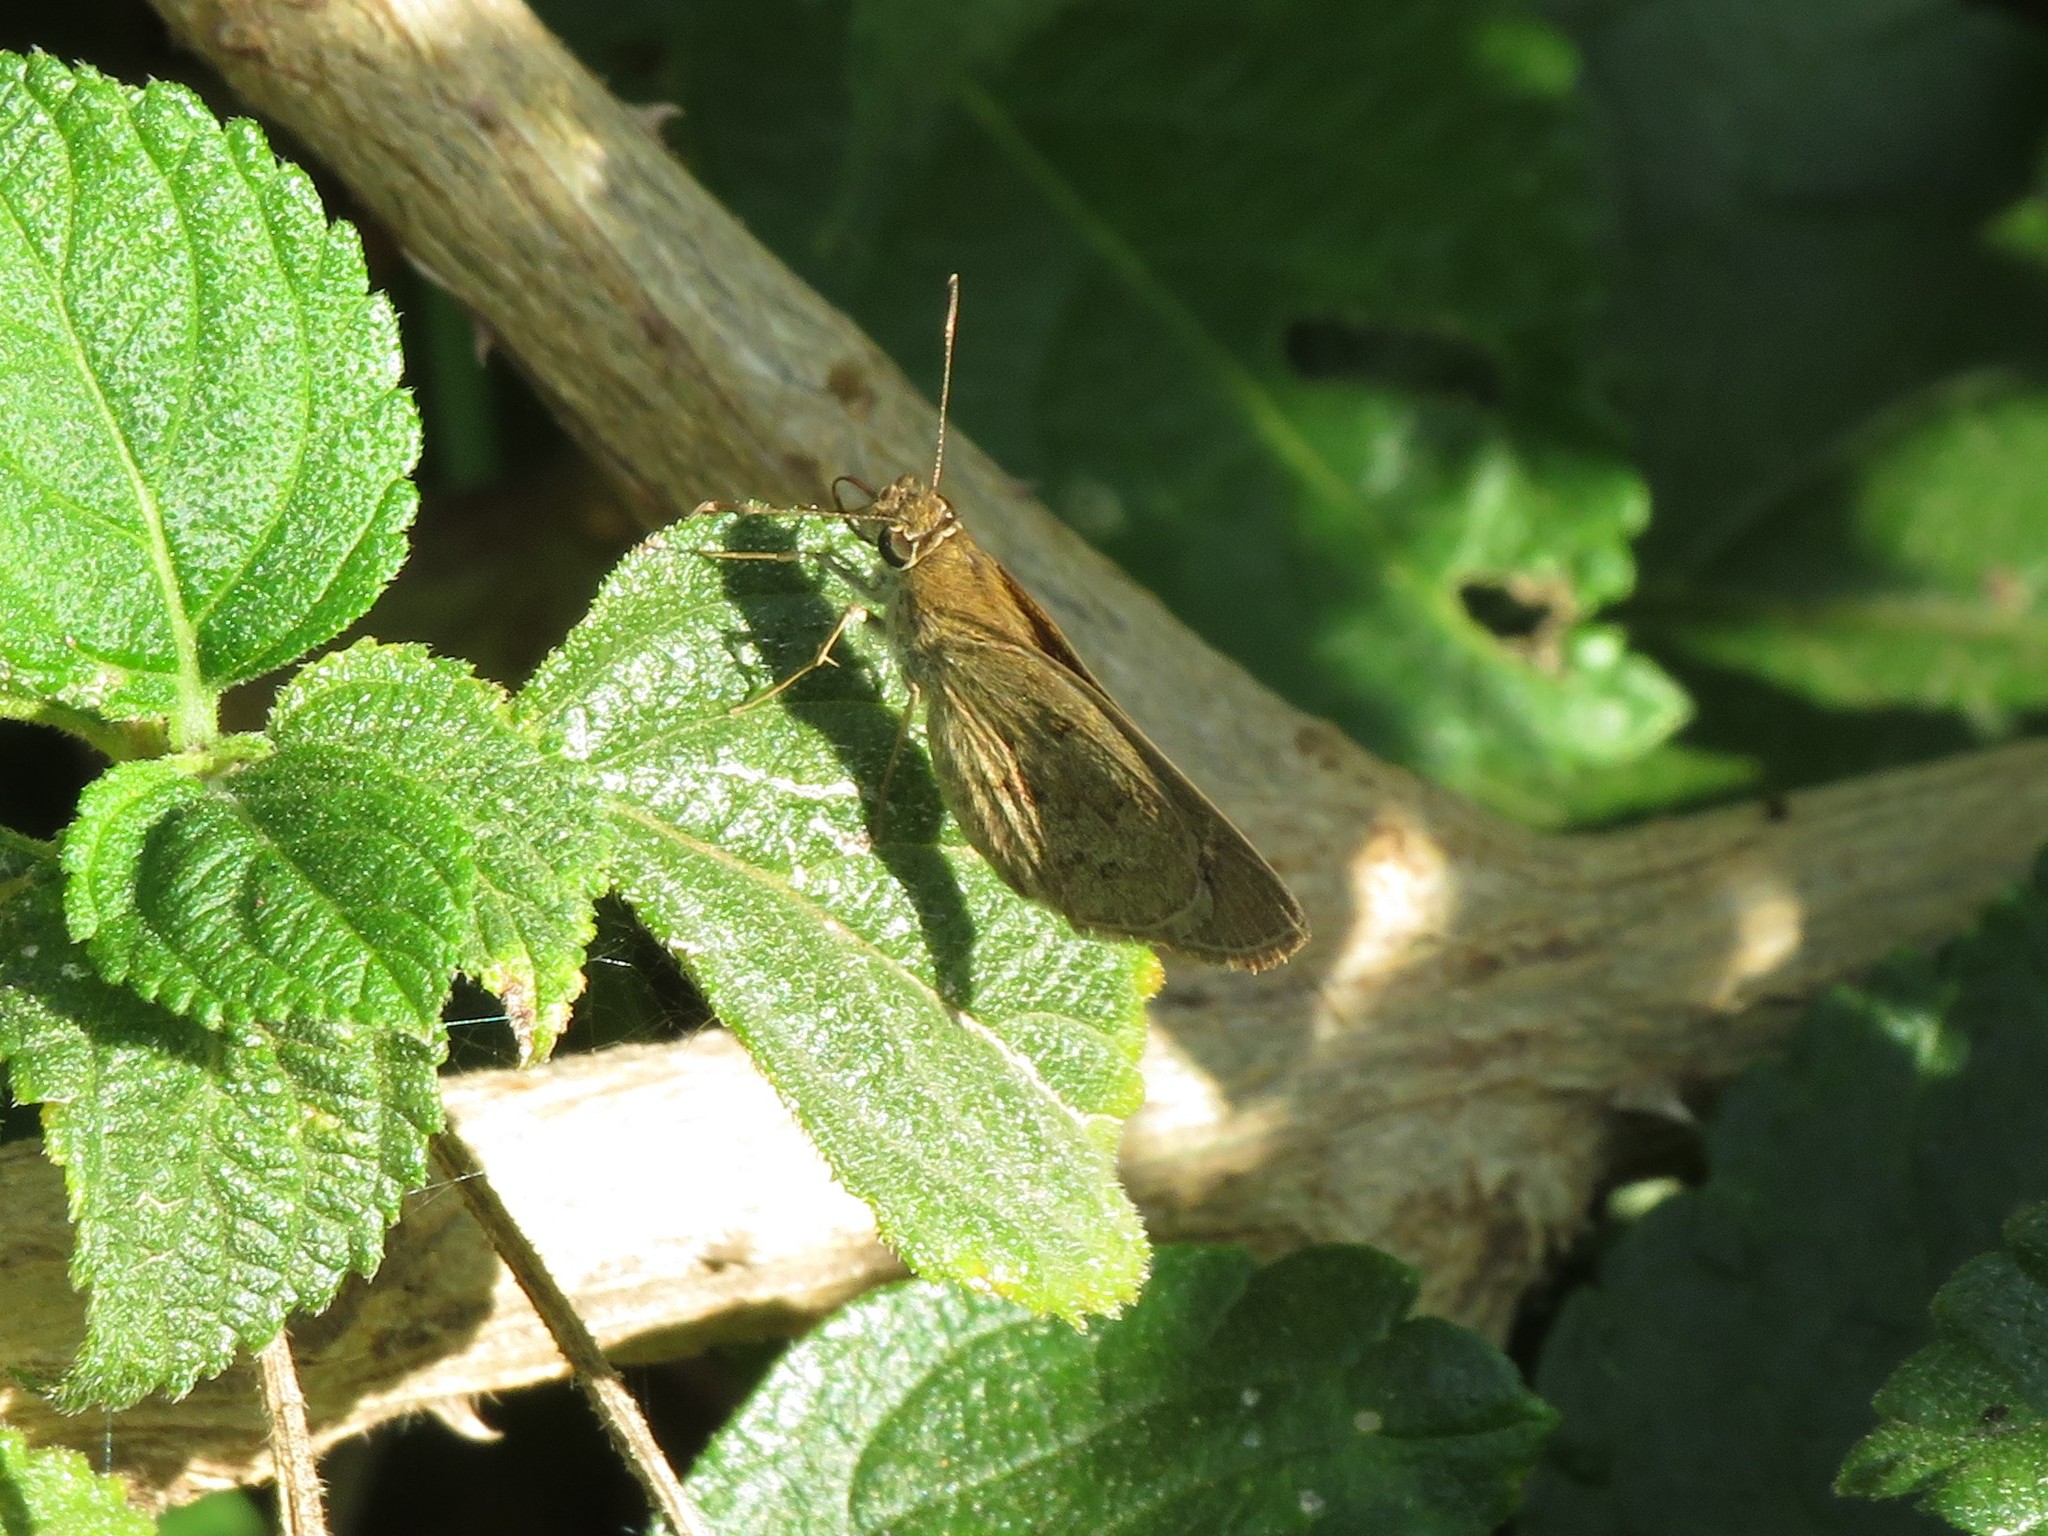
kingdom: Animalia
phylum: Arthropoda
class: Insecta
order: Lepidoptera
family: Hesperiidae
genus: Cymaenes
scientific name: Cymaenes gisca
